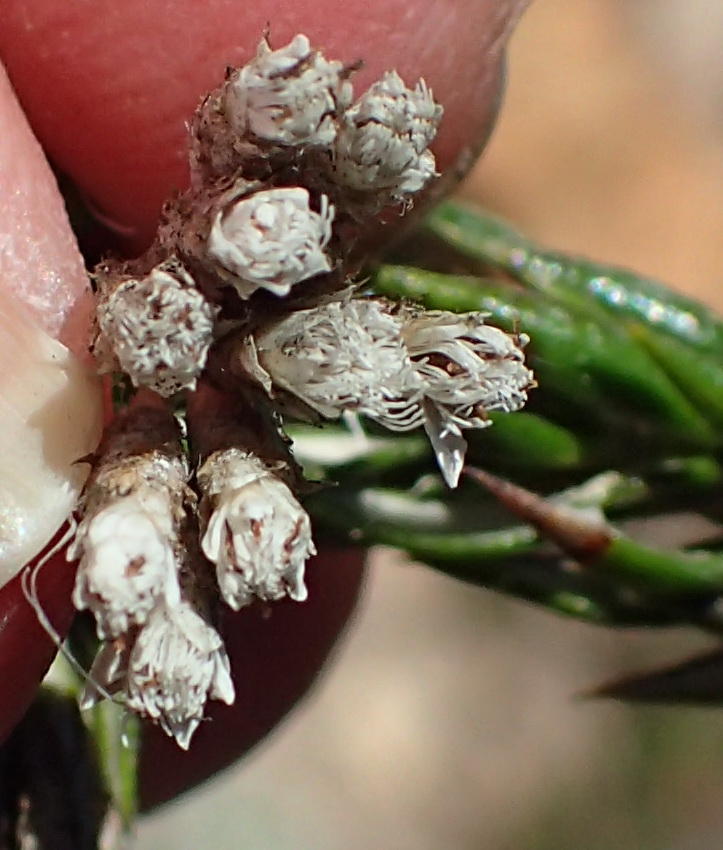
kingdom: Plantae
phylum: Tracheophyta
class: Magnoliopsida
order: Asterales
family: Asteraceae
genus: Metalasia
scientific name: Metalasia pungens
